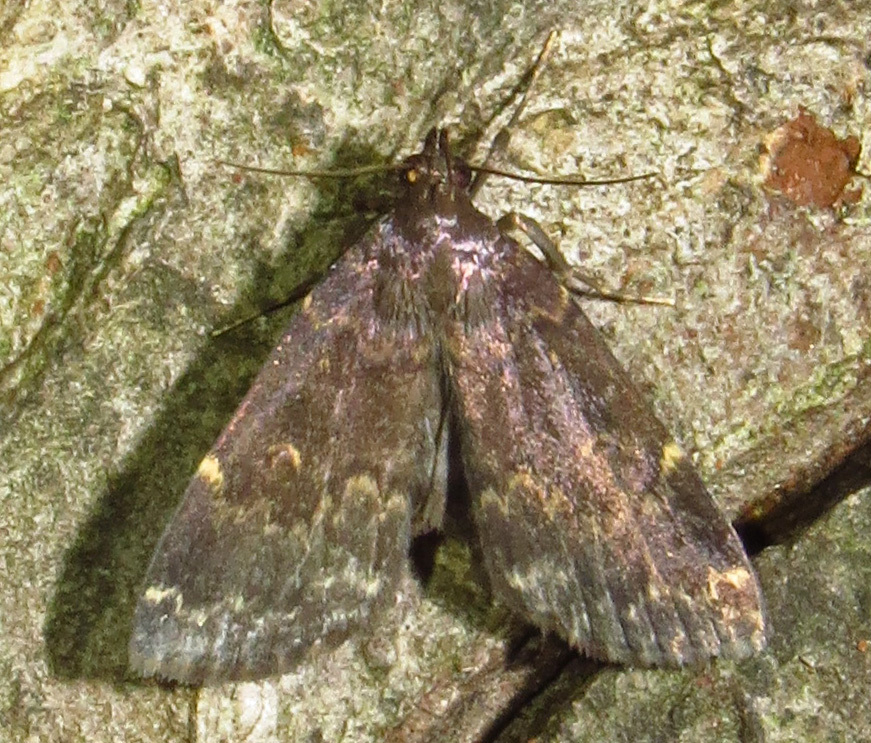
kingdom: Animalia
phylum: Arthropoda
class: Insecta
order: Lepidoptera
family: Erebidae
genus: Idia
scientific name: Idia lubricalis
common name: Twin-striped tabby
